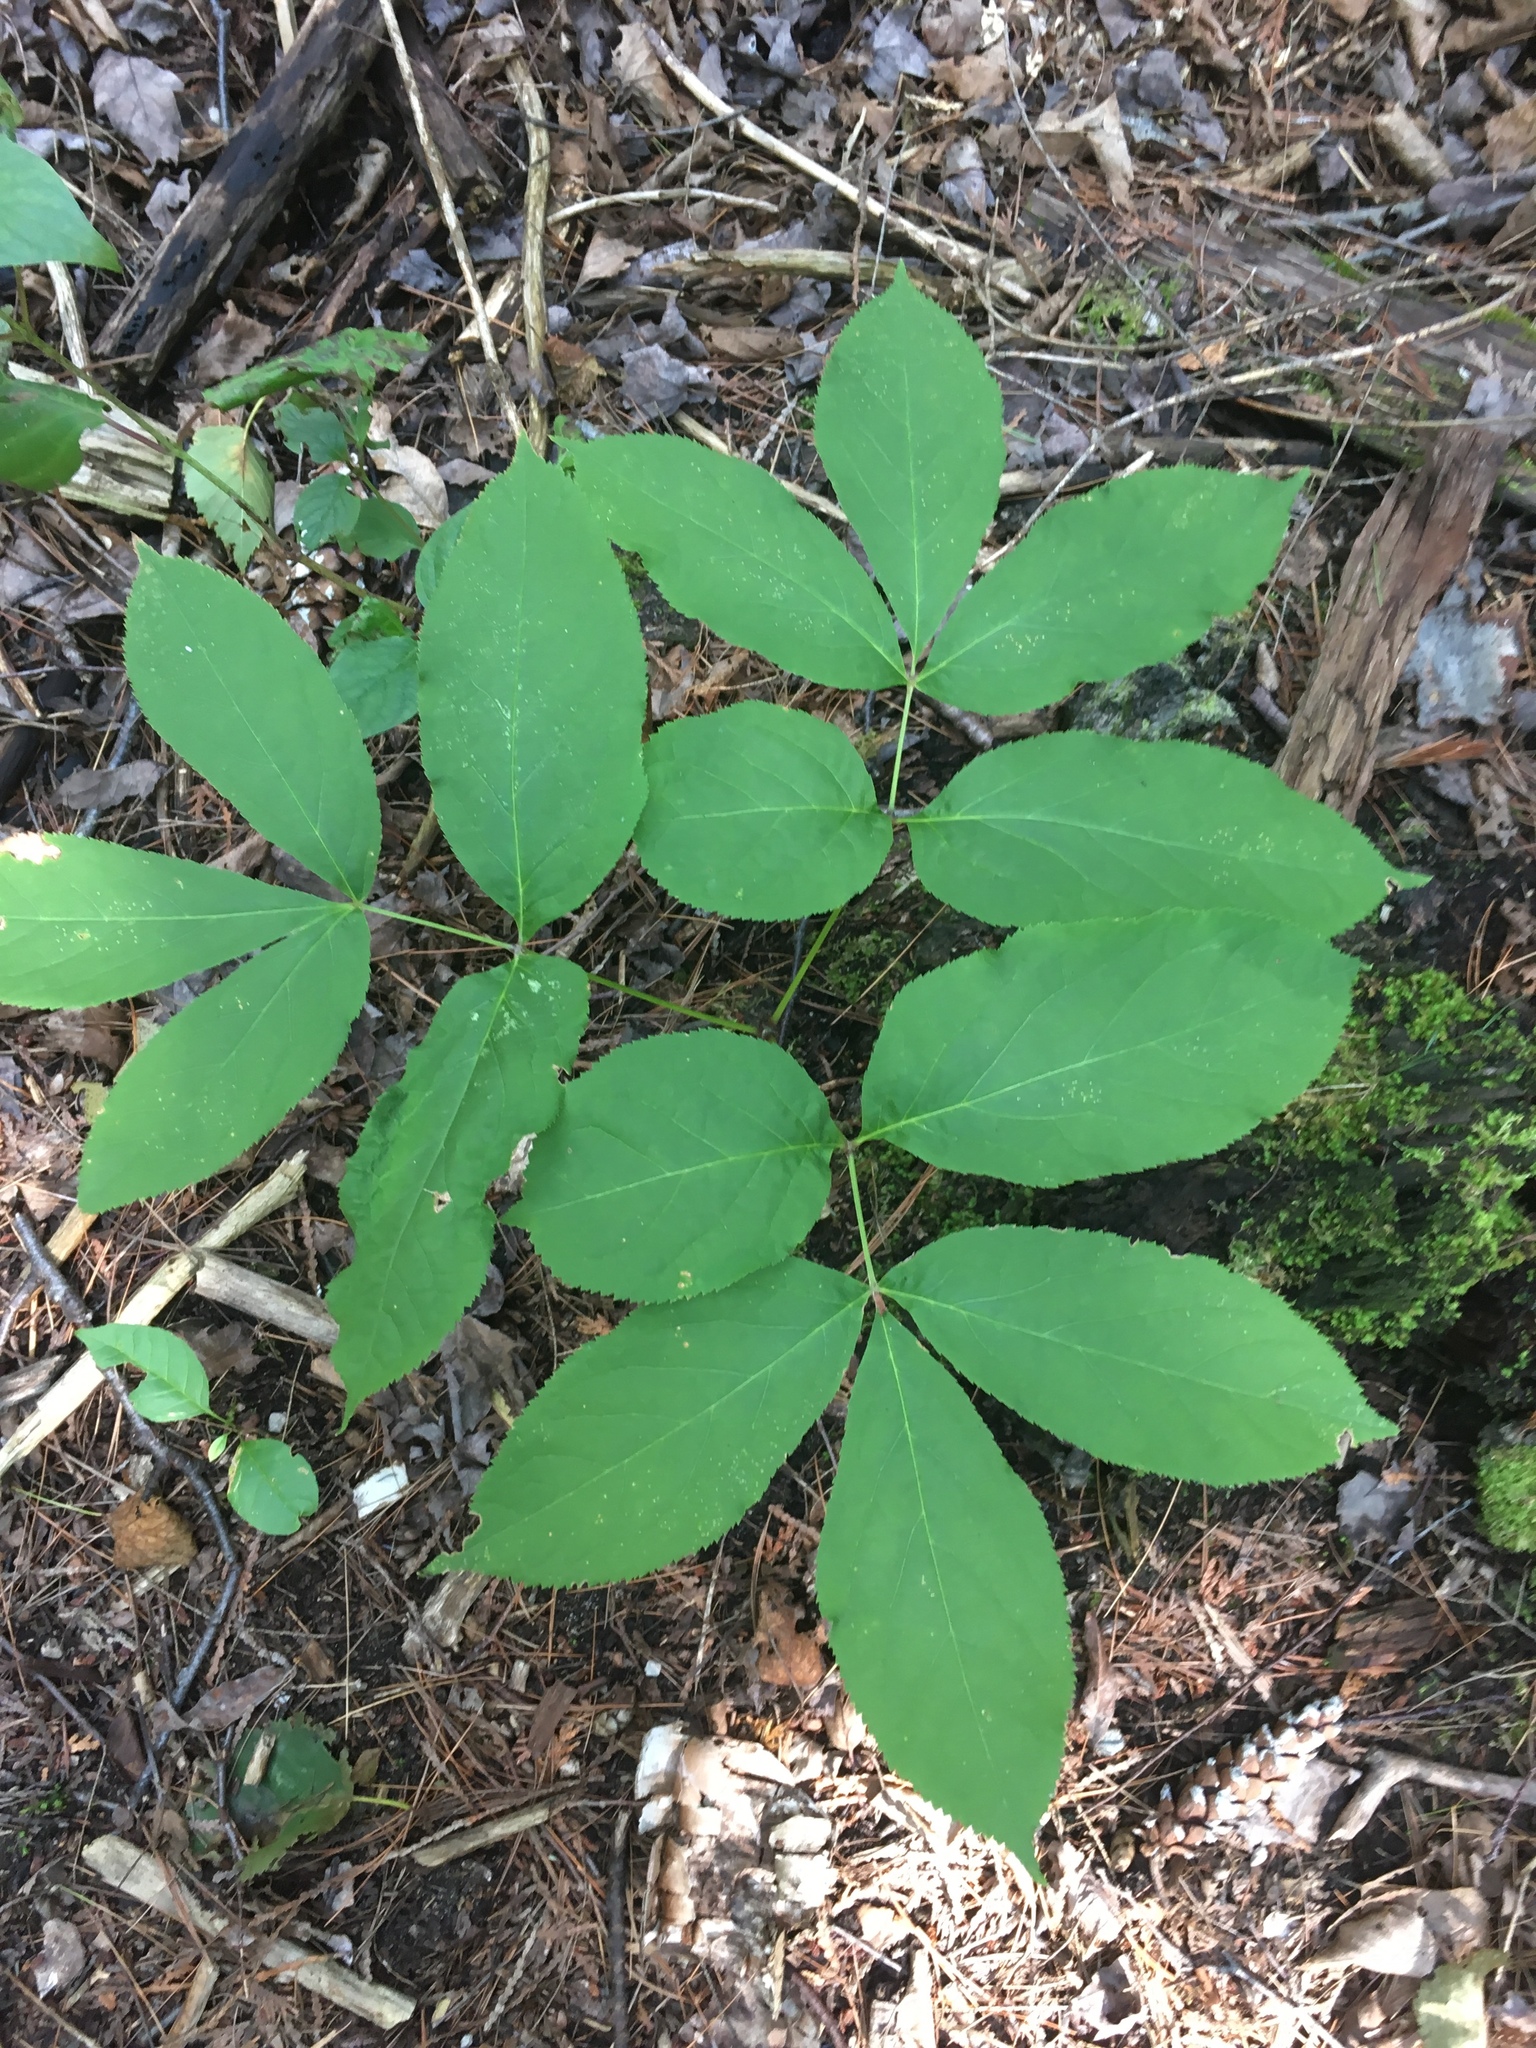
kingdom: Plantae
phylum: Tracheophyta
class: Magnoliopsida
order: Apiales
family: Araliaceae
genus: Aralia
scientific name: Aralia nudicaulis
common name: Wild sarsaparilla
